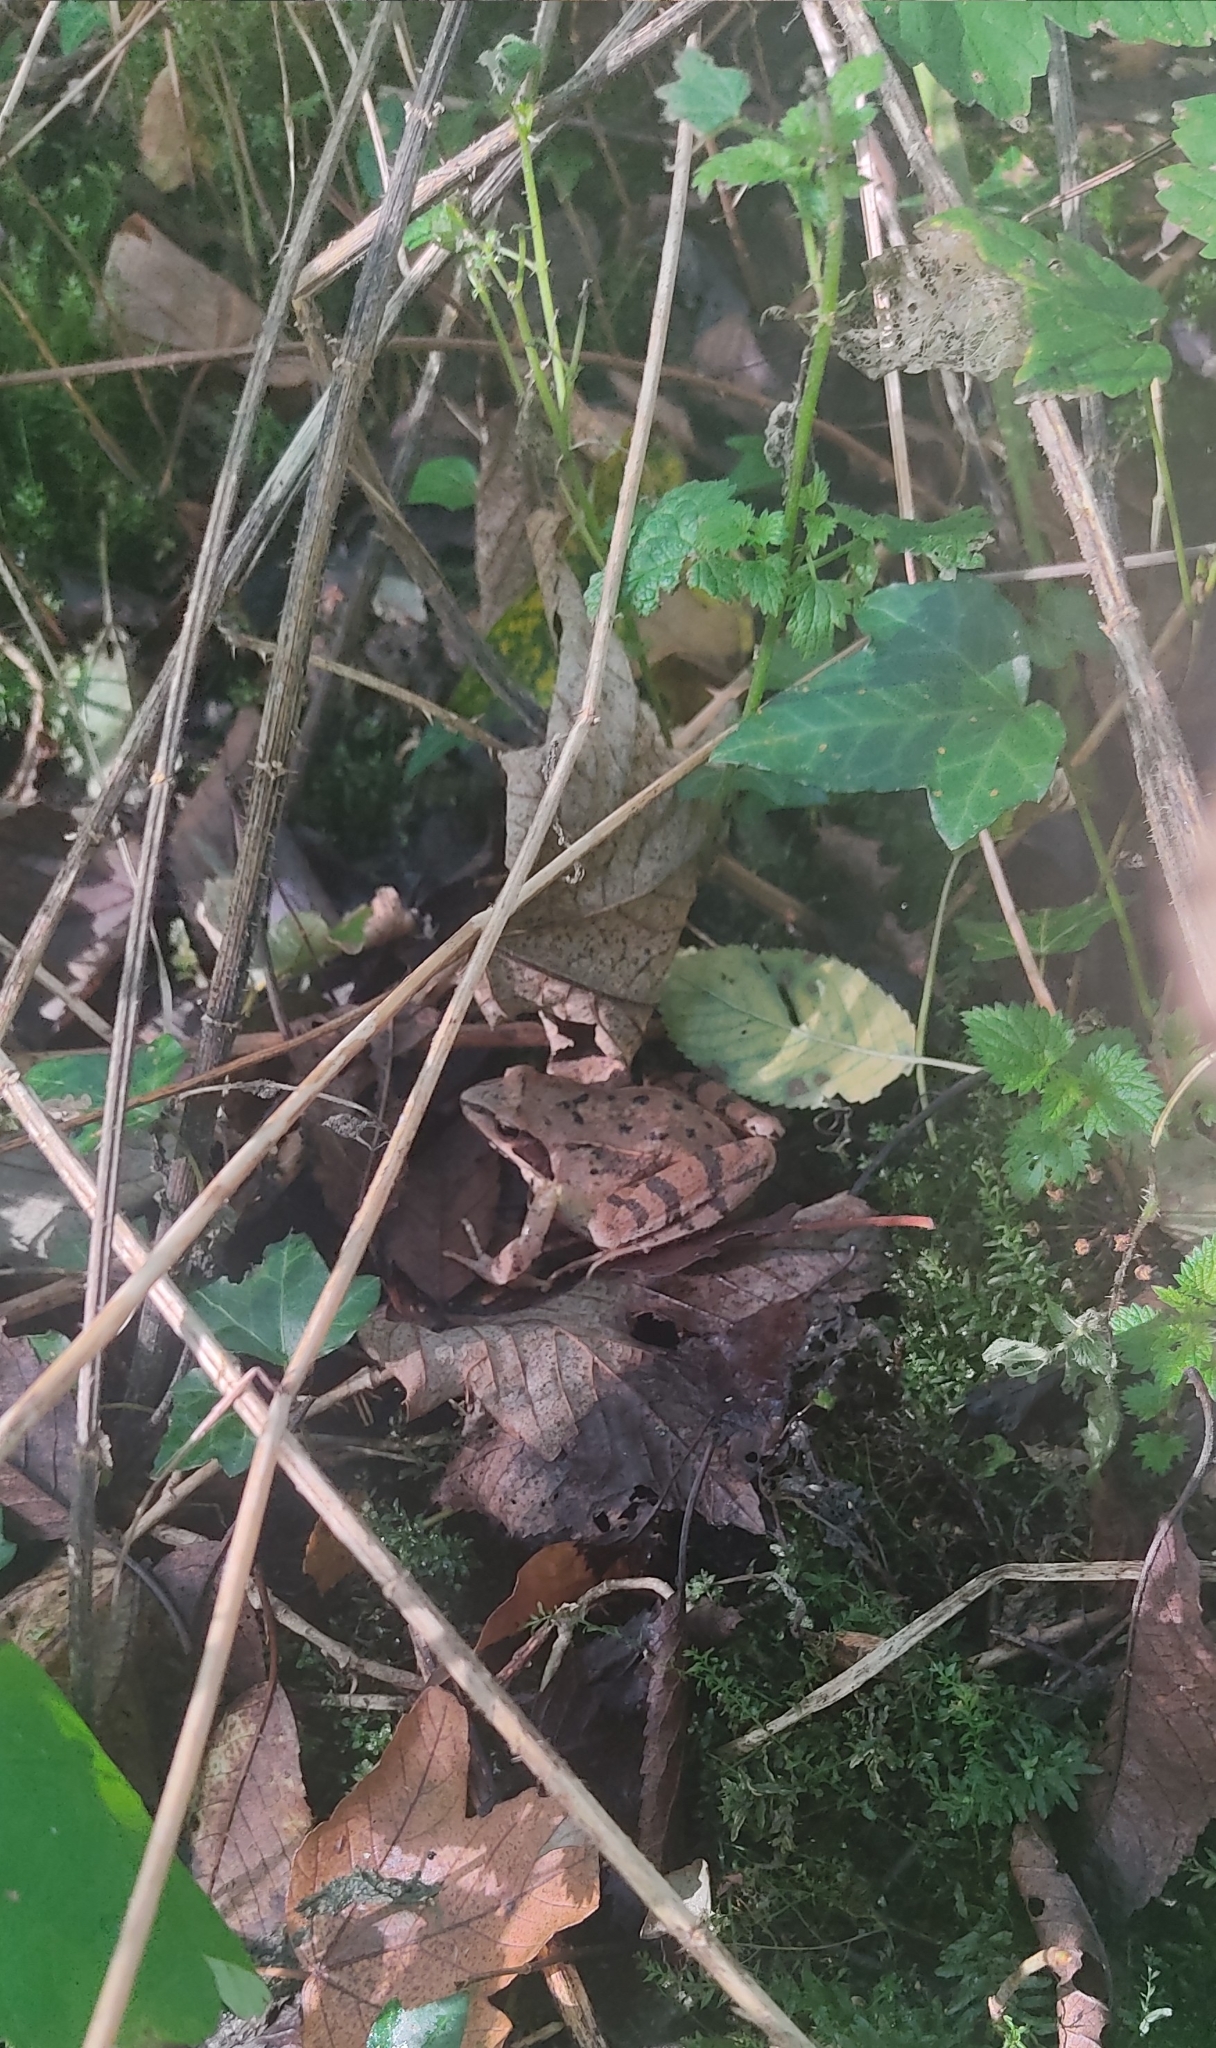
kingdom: Animalia
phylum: Chordata
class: Amphibia
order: Anura
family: Ranidae
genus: Rana
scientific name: Rana dalmatina
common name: Agile frog
